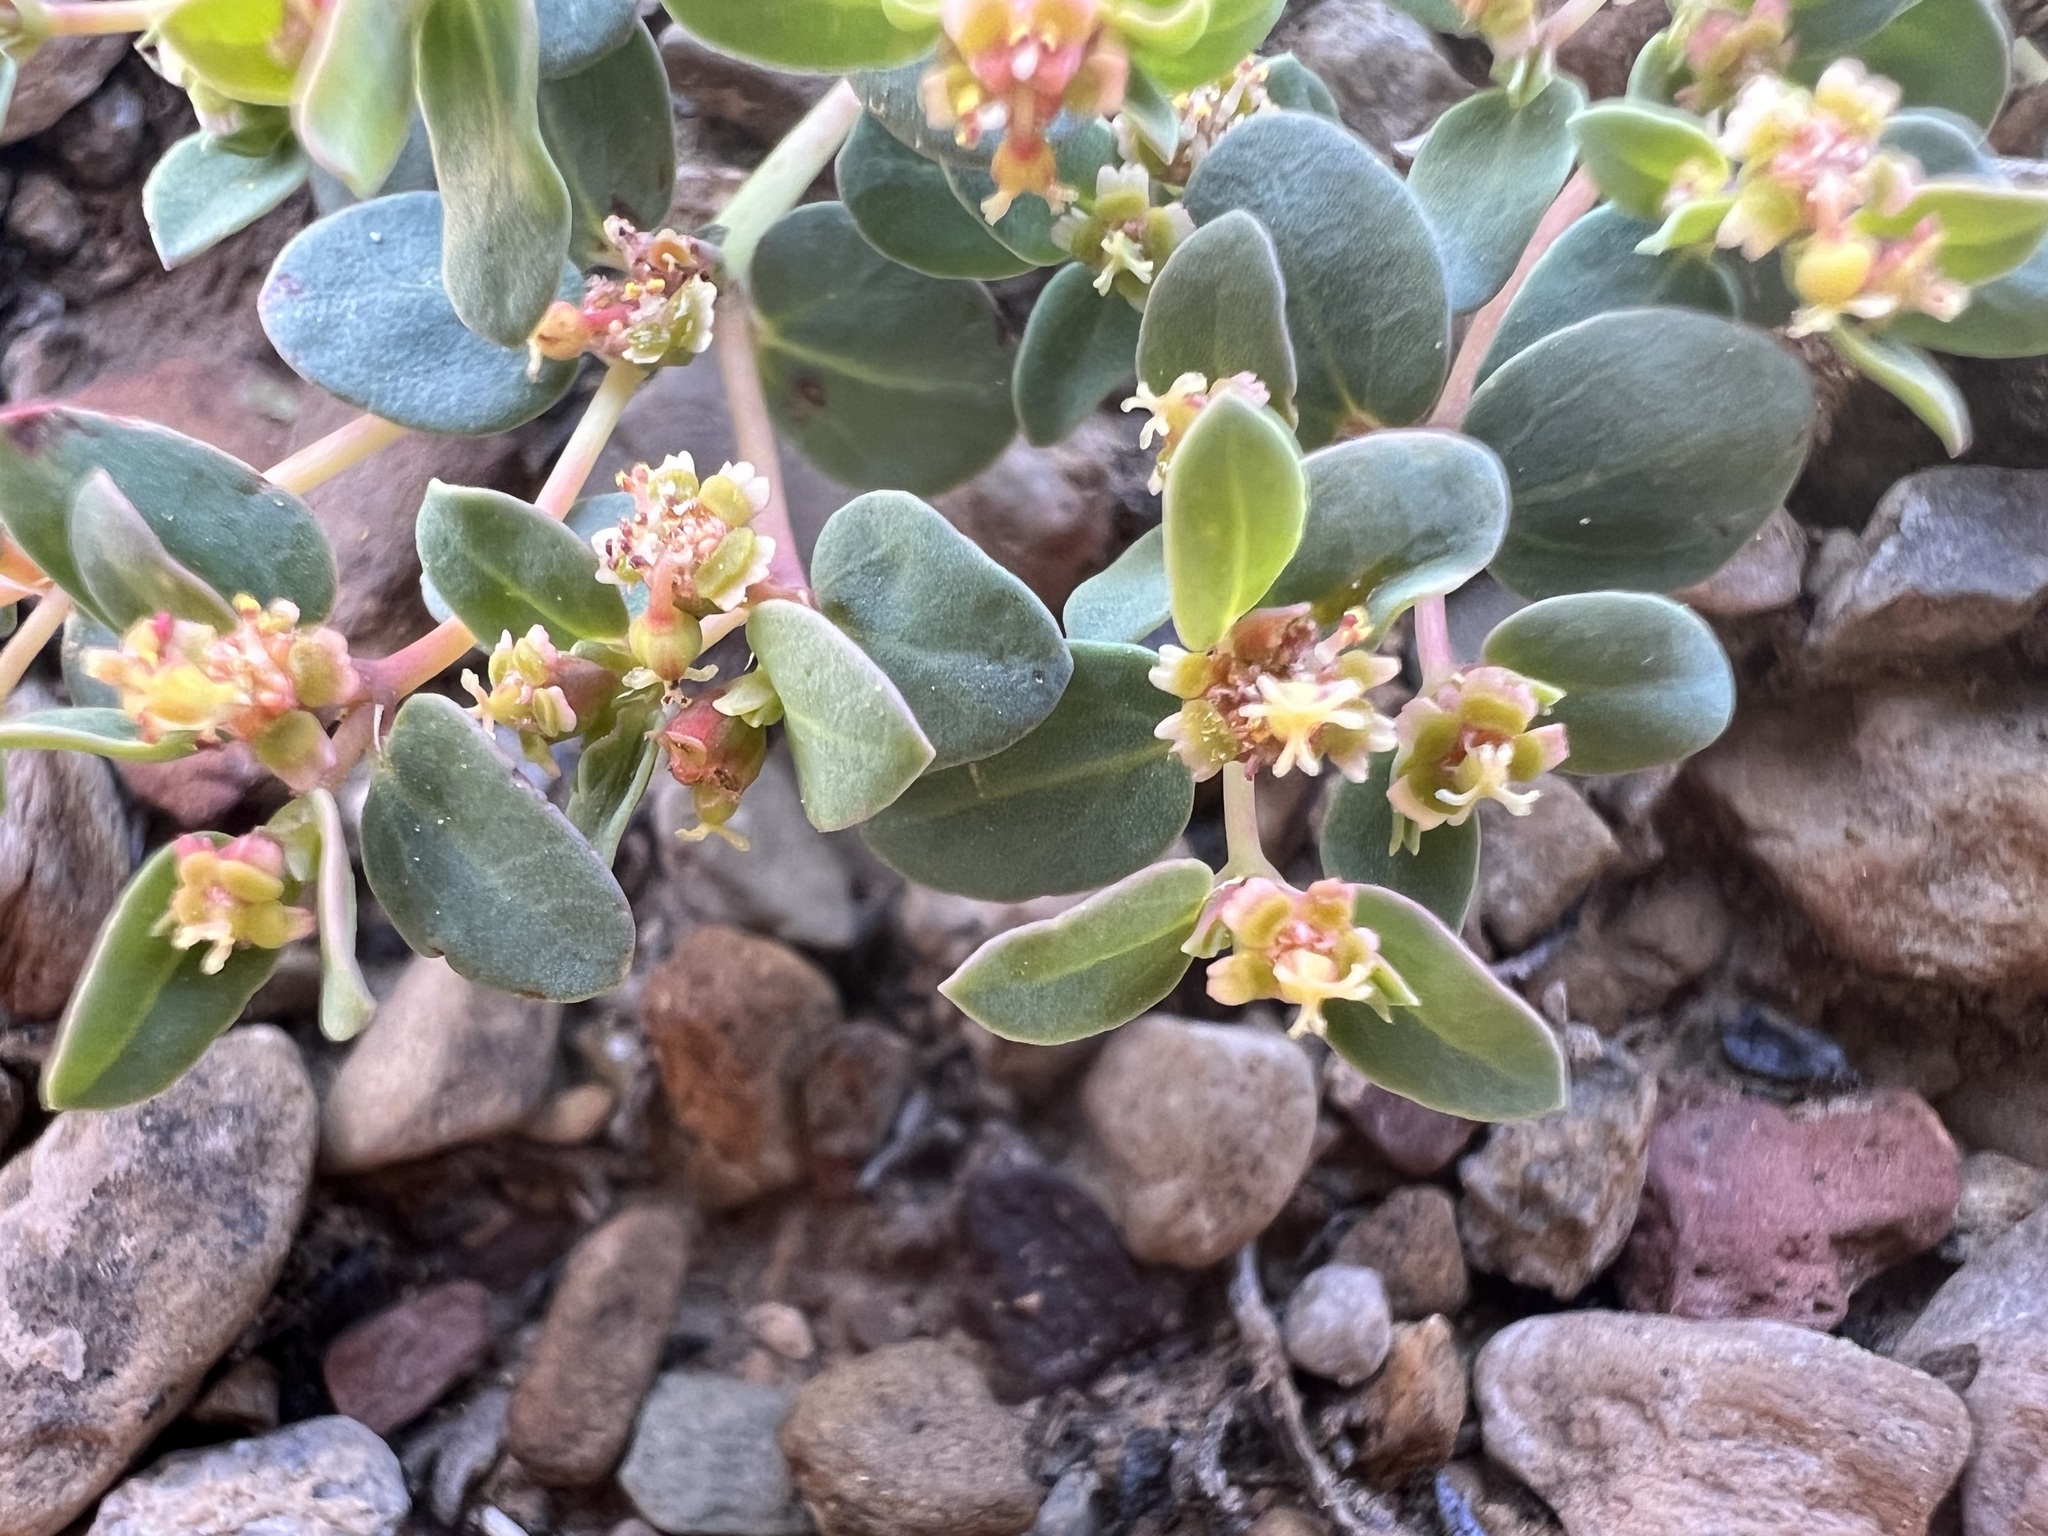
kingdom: Plantae
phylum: Tracheophyta
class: Magnoliopsida
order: Malpighiales
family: Euphorbiaceae
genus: Euphorbia
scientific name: Euphorbia fendleri
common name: Fendler's euphorbia
